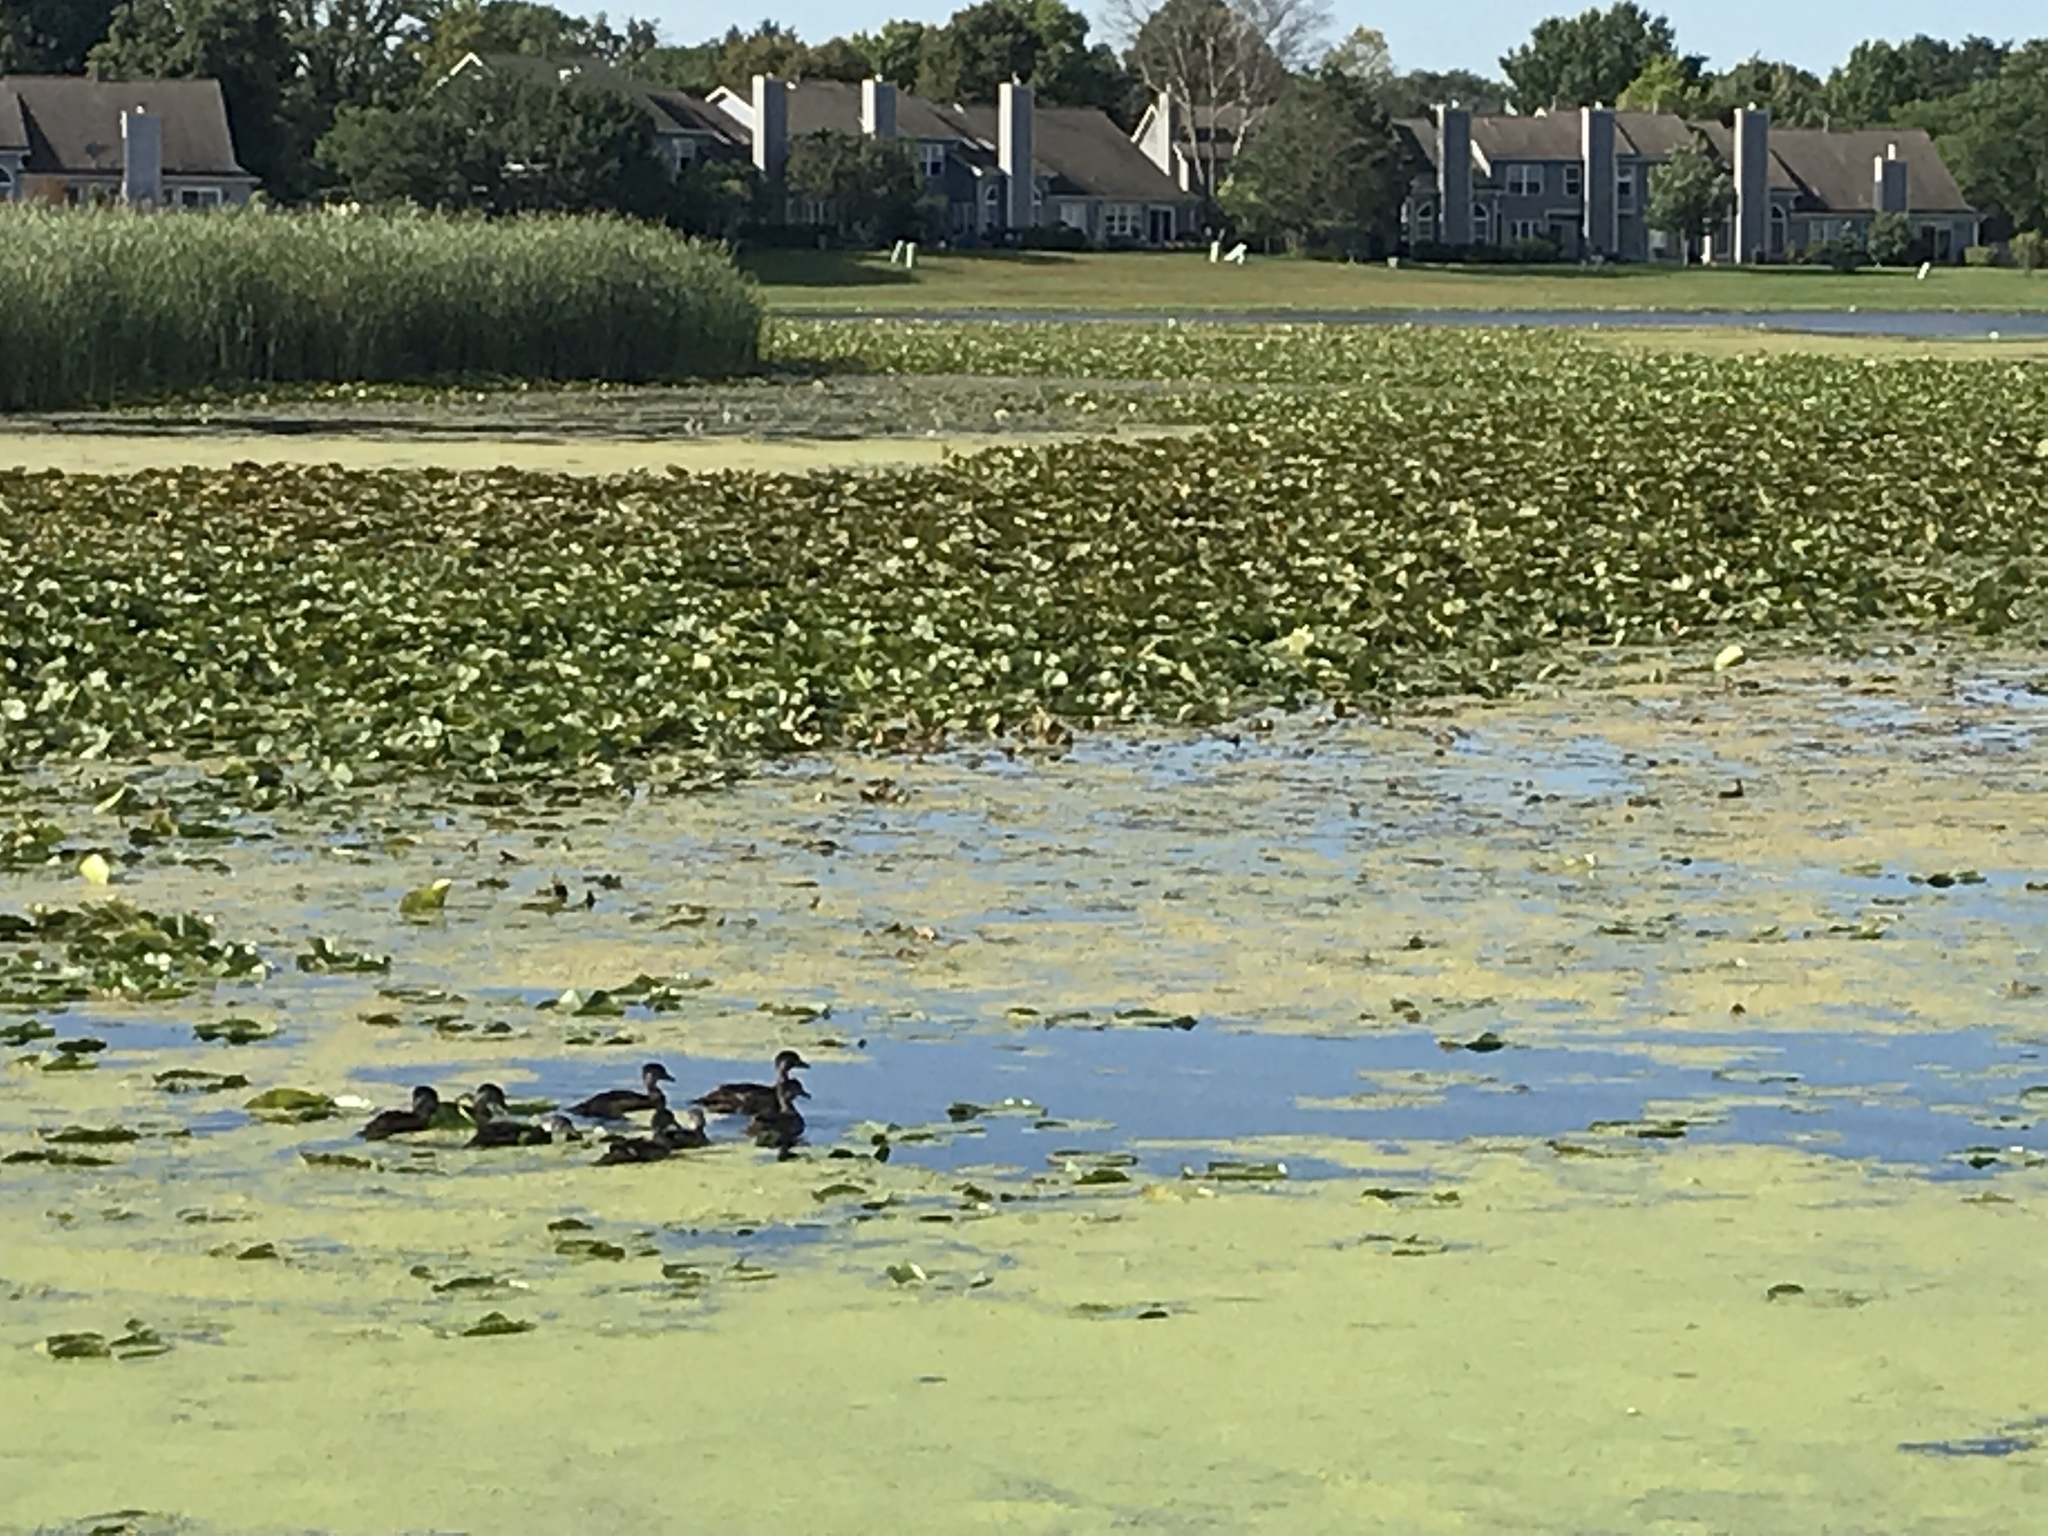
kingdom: Animalia
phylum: Chordata
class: Aves
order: Anseriformes
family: Anatidae
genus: Aix
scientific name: Aix sponsa
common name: Wood duck
